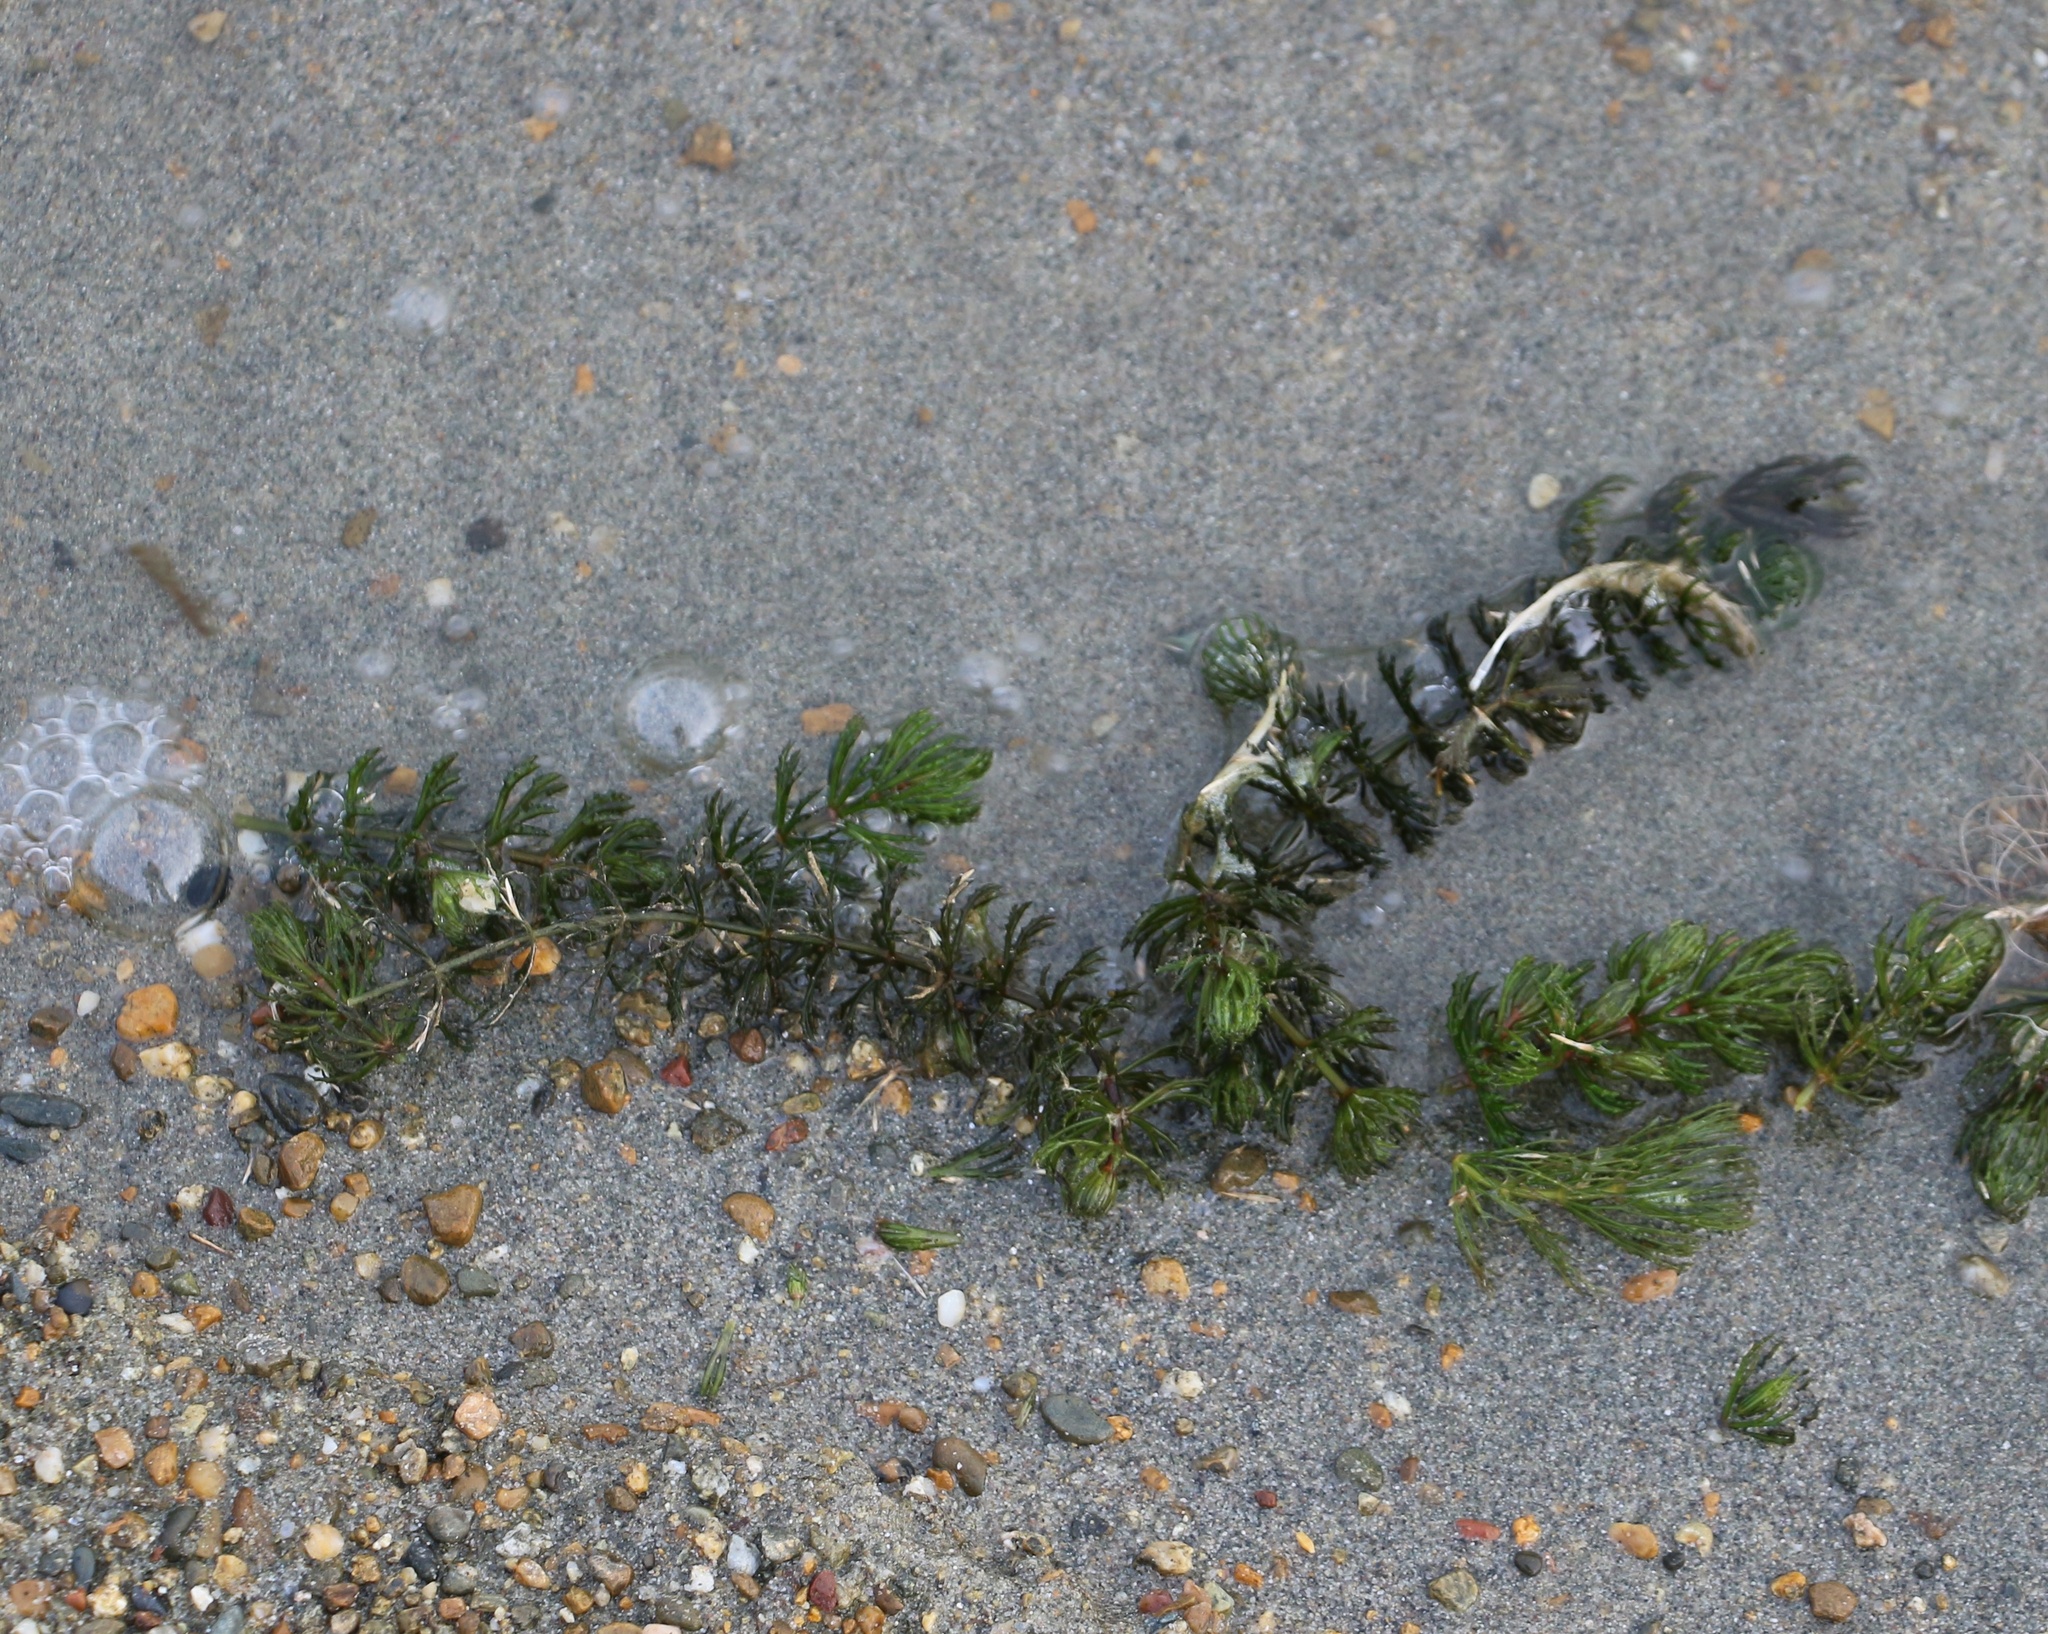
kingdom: Plantae
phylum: Tracheophyta
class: Magnoliopsida
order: Ceratophyllales
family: Ceratophyllaceae
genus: Ceratophyllum
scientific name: Ceratophyllum demersum
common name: Rigid hornwort
